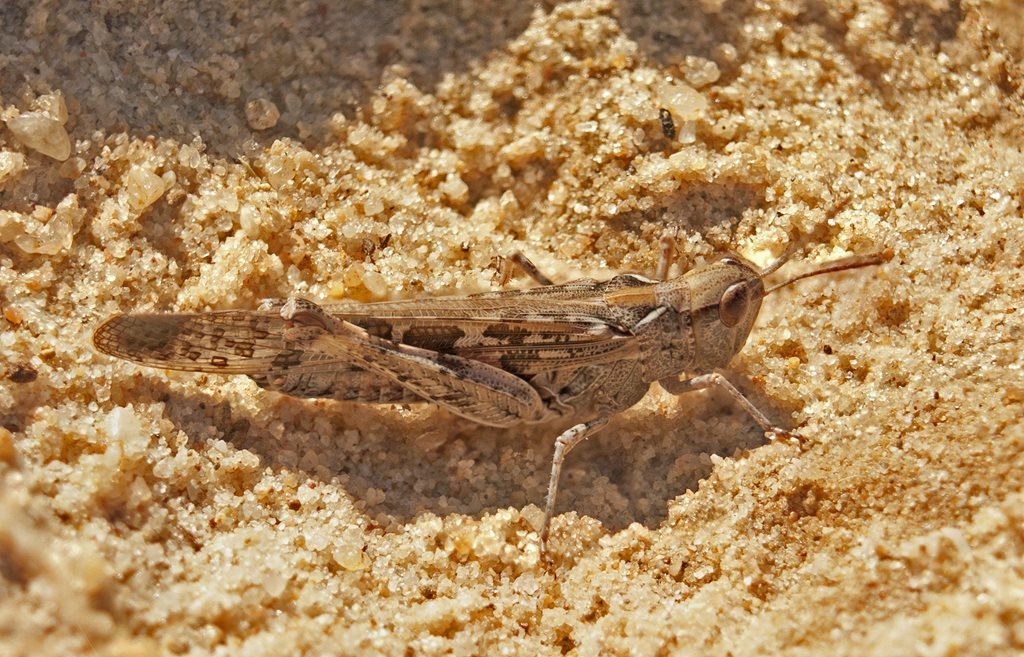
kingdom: Animalia
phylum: Arthropoda
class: Insecta
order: Orthoptera
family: Acrididae
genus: Chortoicetes
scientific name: Chortoicetes terminifera
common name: Australian plague locust
